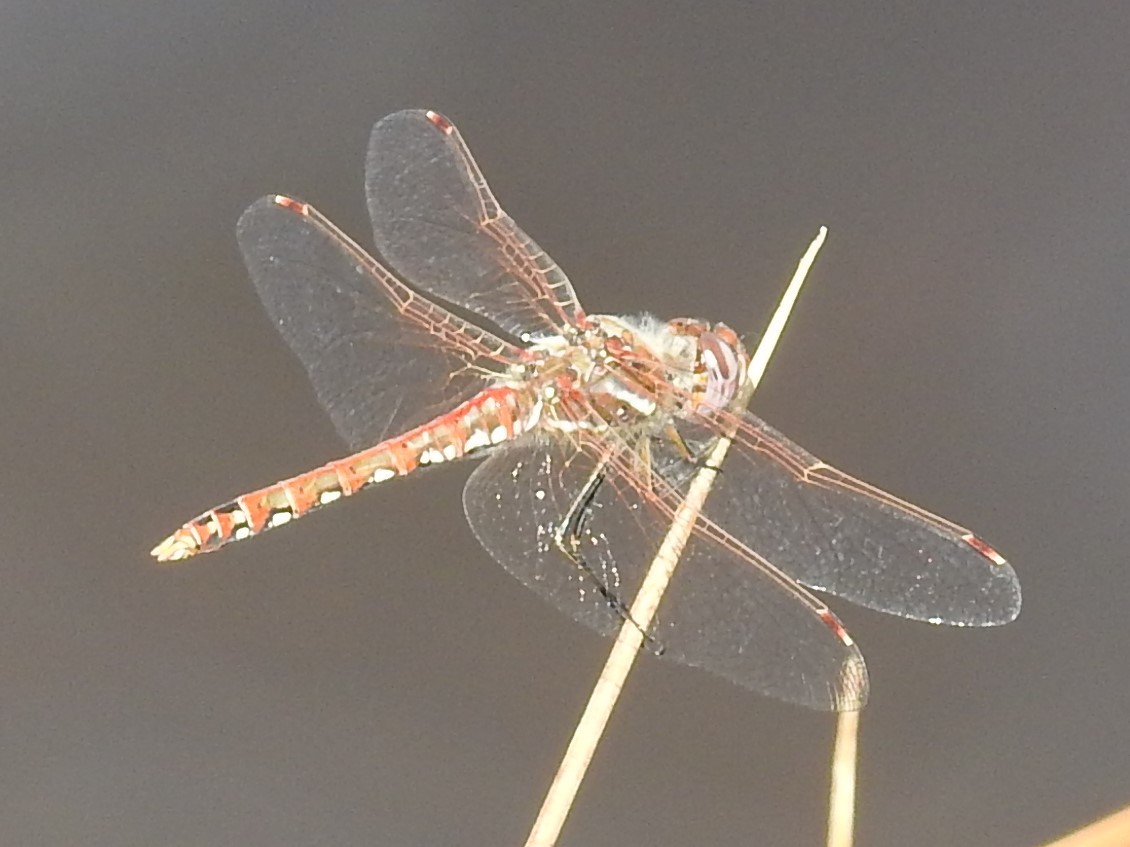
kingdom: Animalia
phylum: Arthropoda
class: Insecta
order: Odonata
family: Libellulidae
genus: Sympetrum
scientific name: Sympetrum corruptum
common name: Variegated meadowhawk
